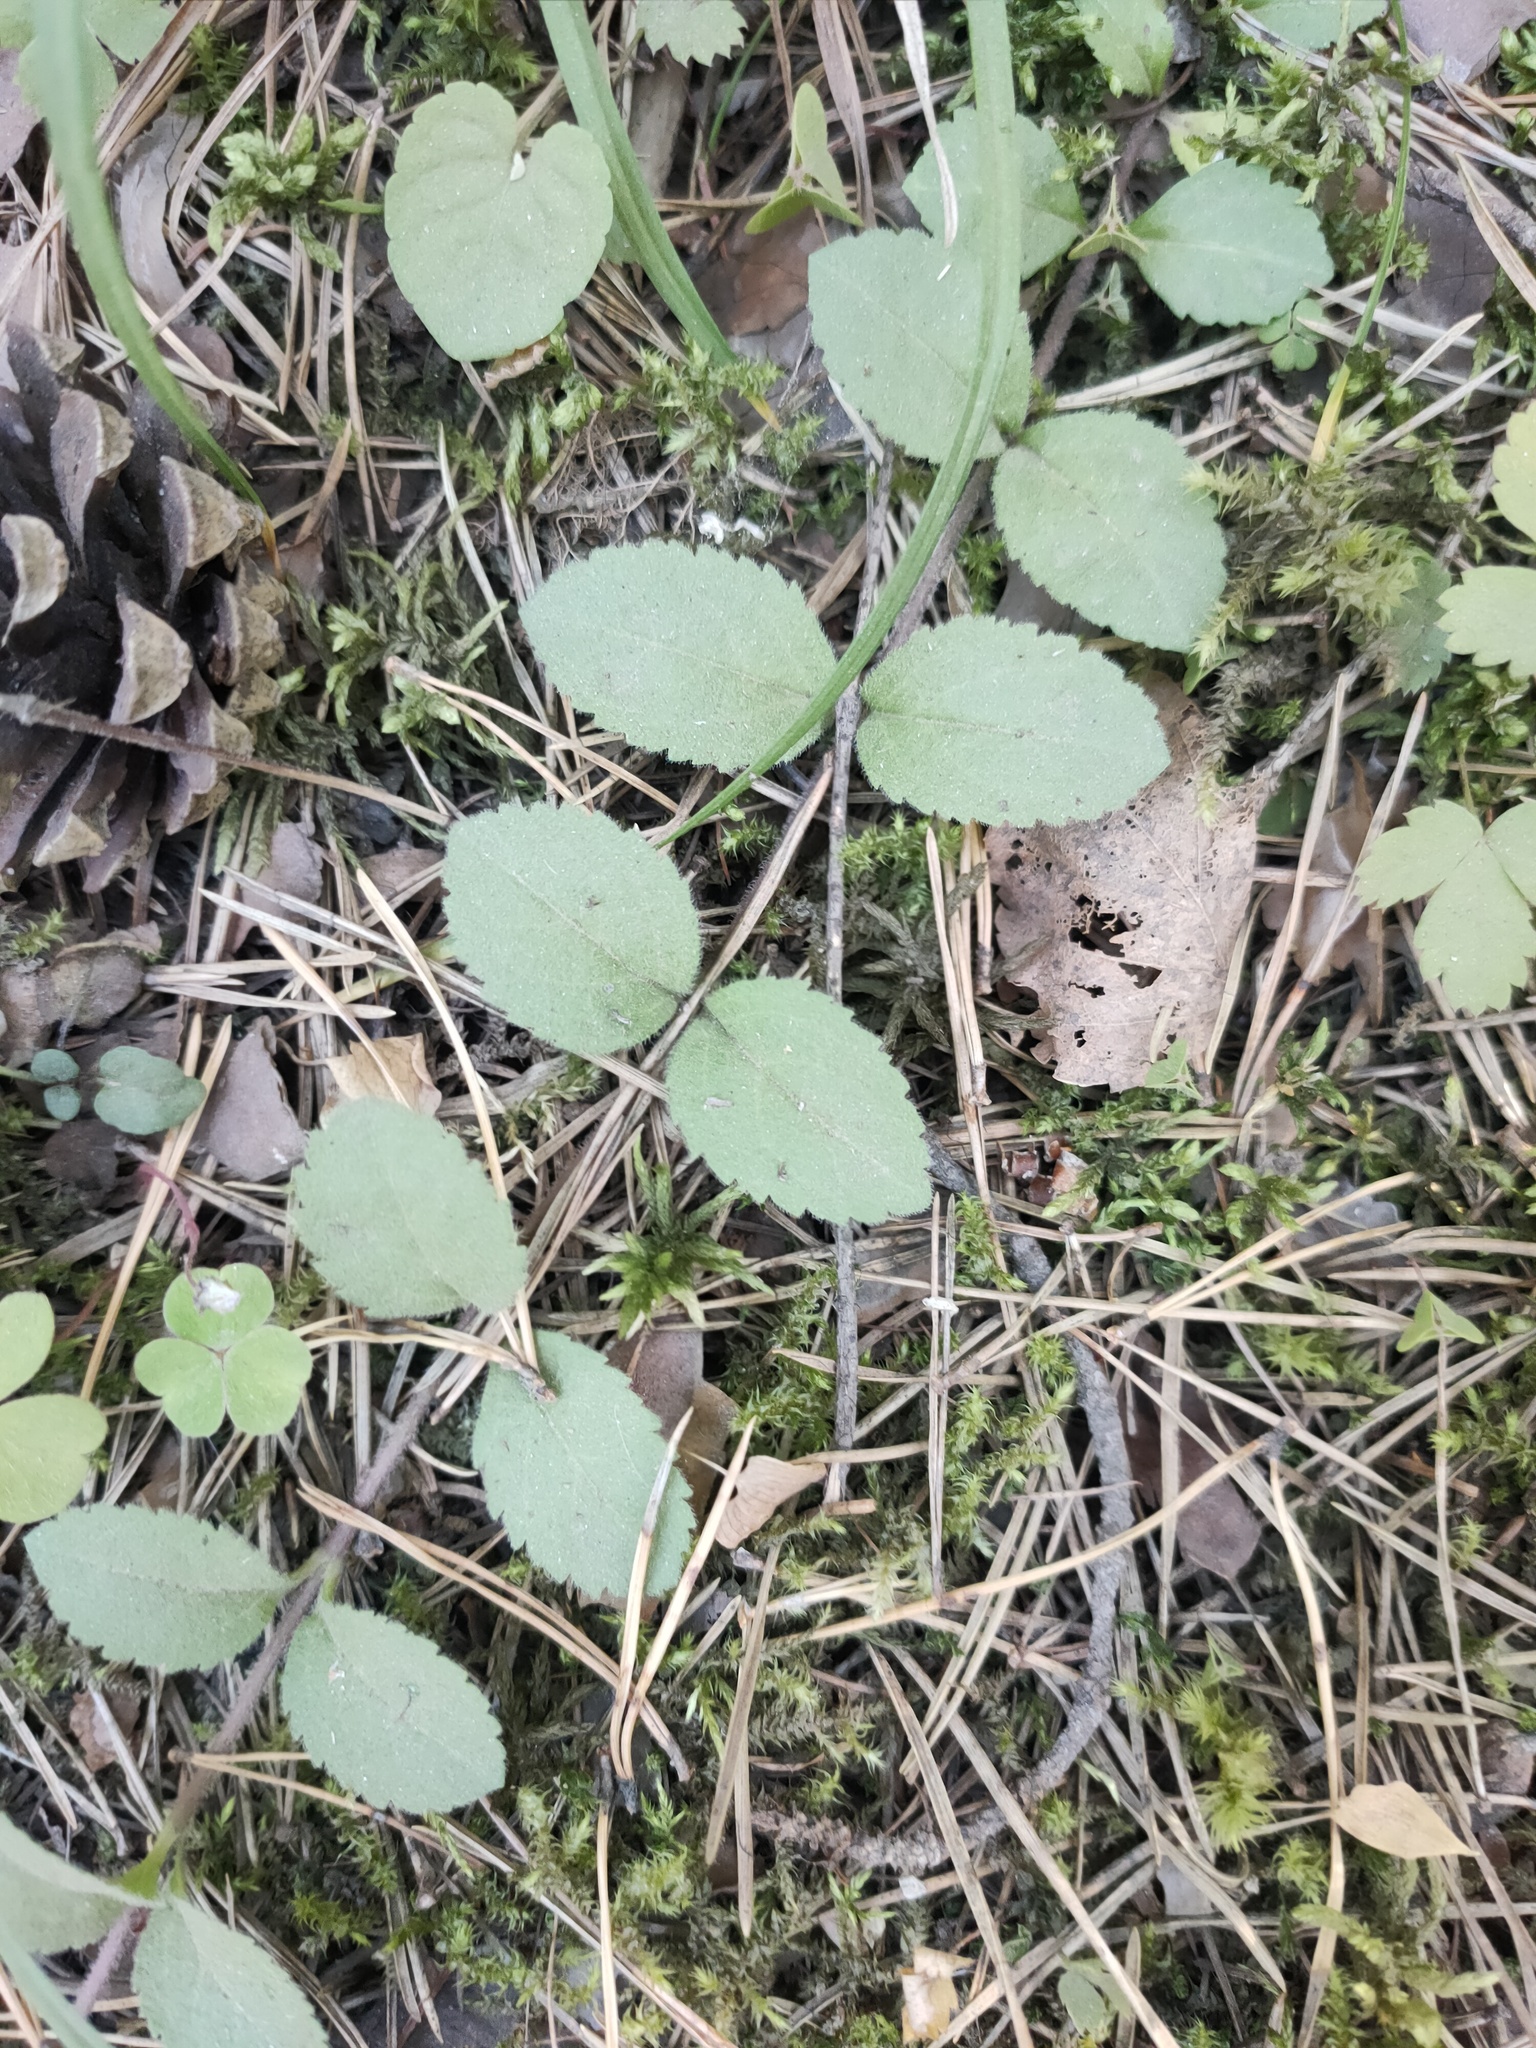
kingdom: Plantae
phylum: Tracheophyta
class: Magnoliopsida
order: Lamiales
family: Plantaginaceae
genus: Veronica
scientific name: Veronica officinalis
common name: Common speedwell
